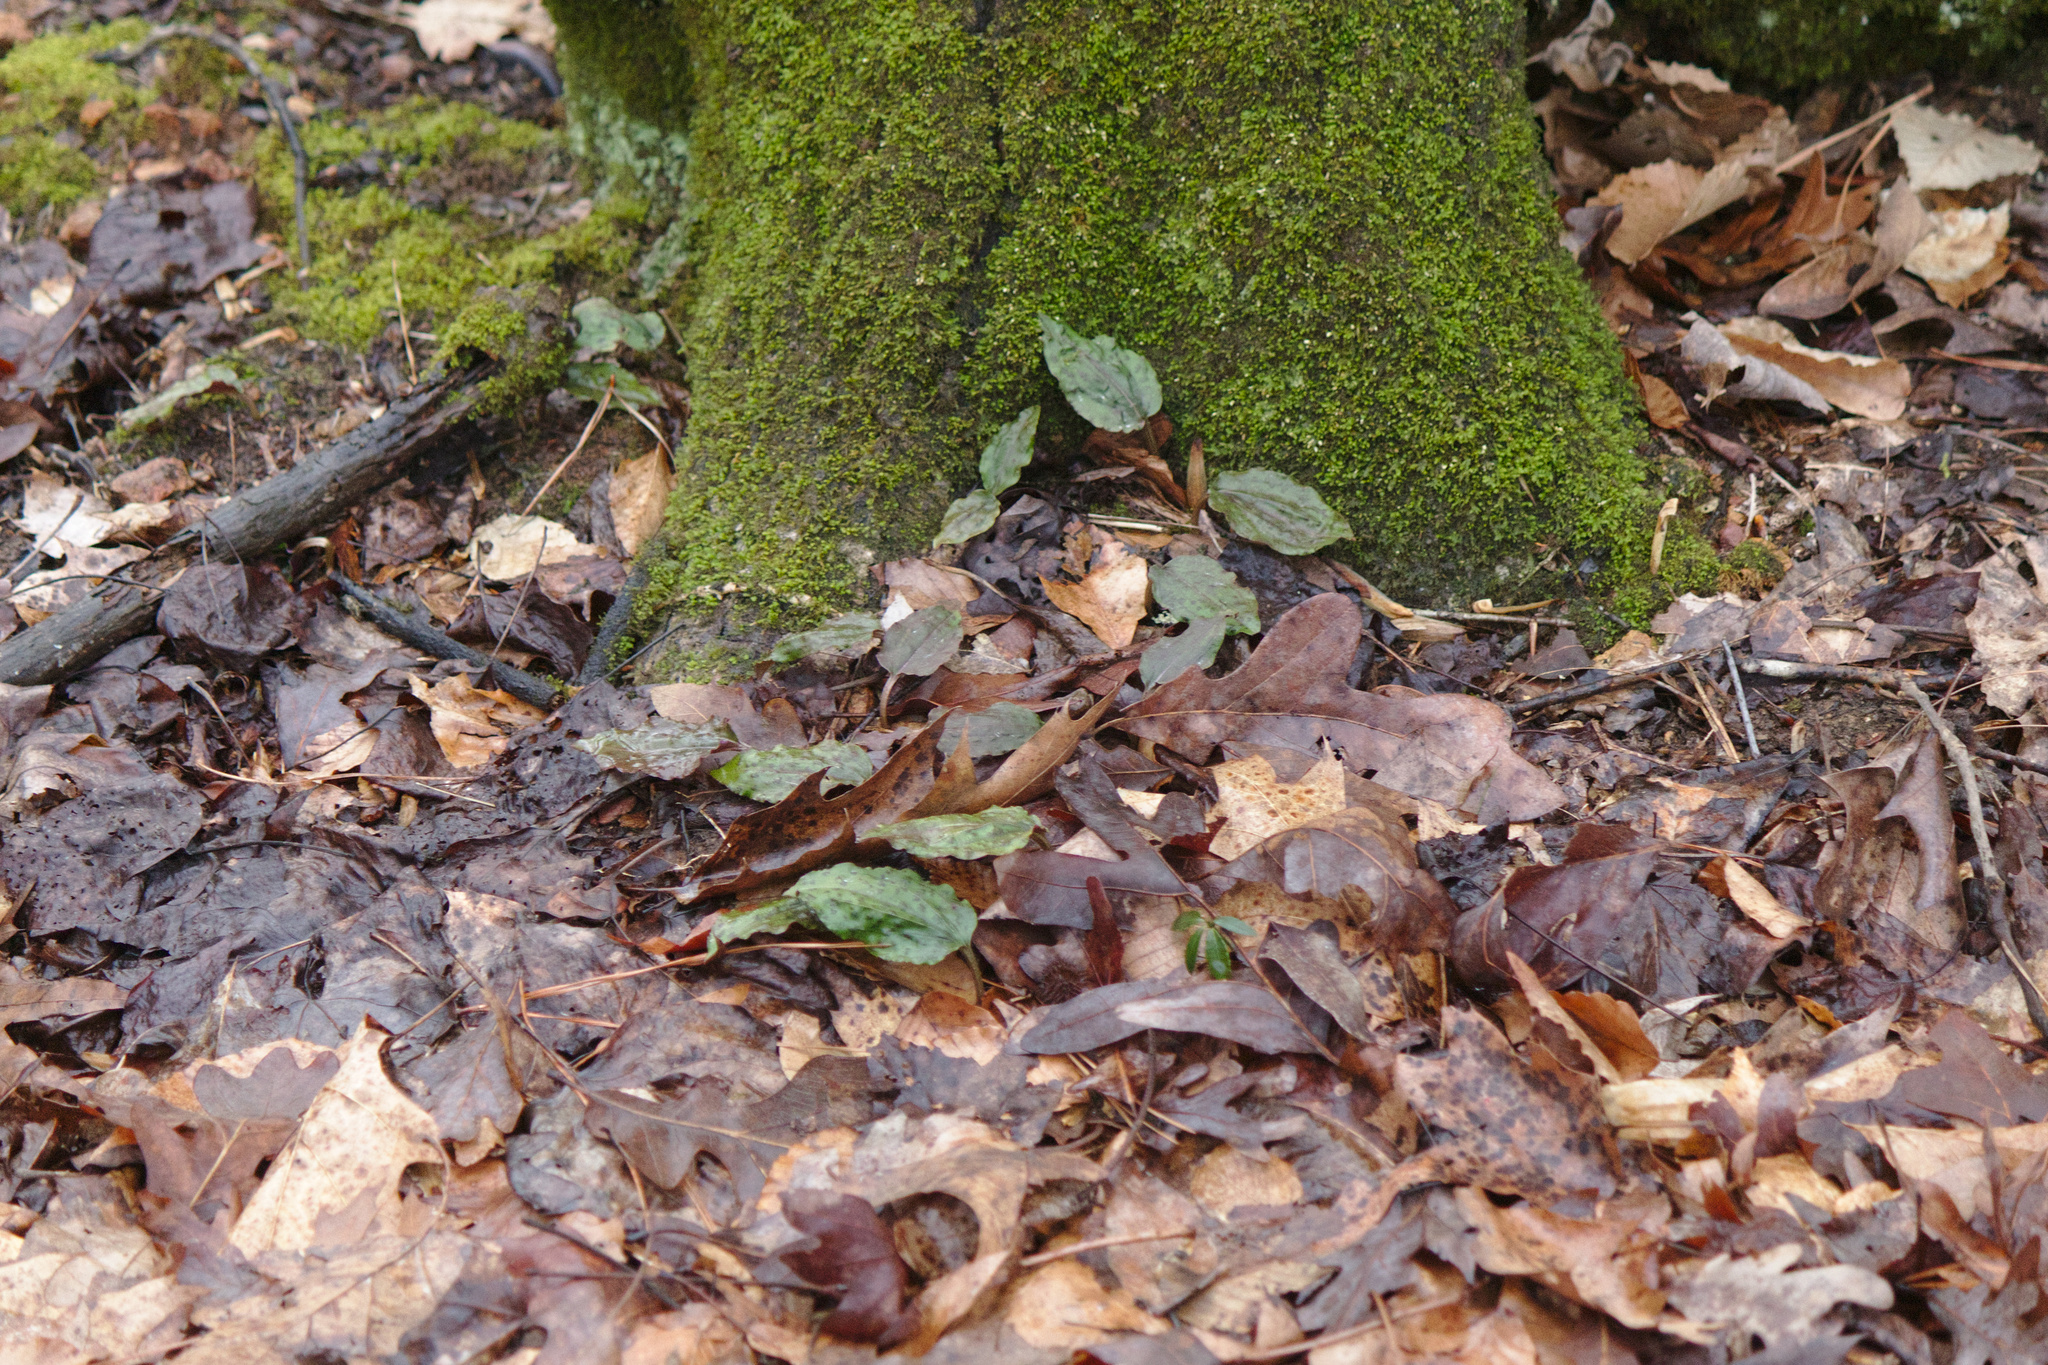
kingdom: Plantae
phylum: Tracheophyta
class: Liliopsida
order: Asparagales
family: Orchidaceae
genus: Tipularia
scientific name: Tipularia discolor
